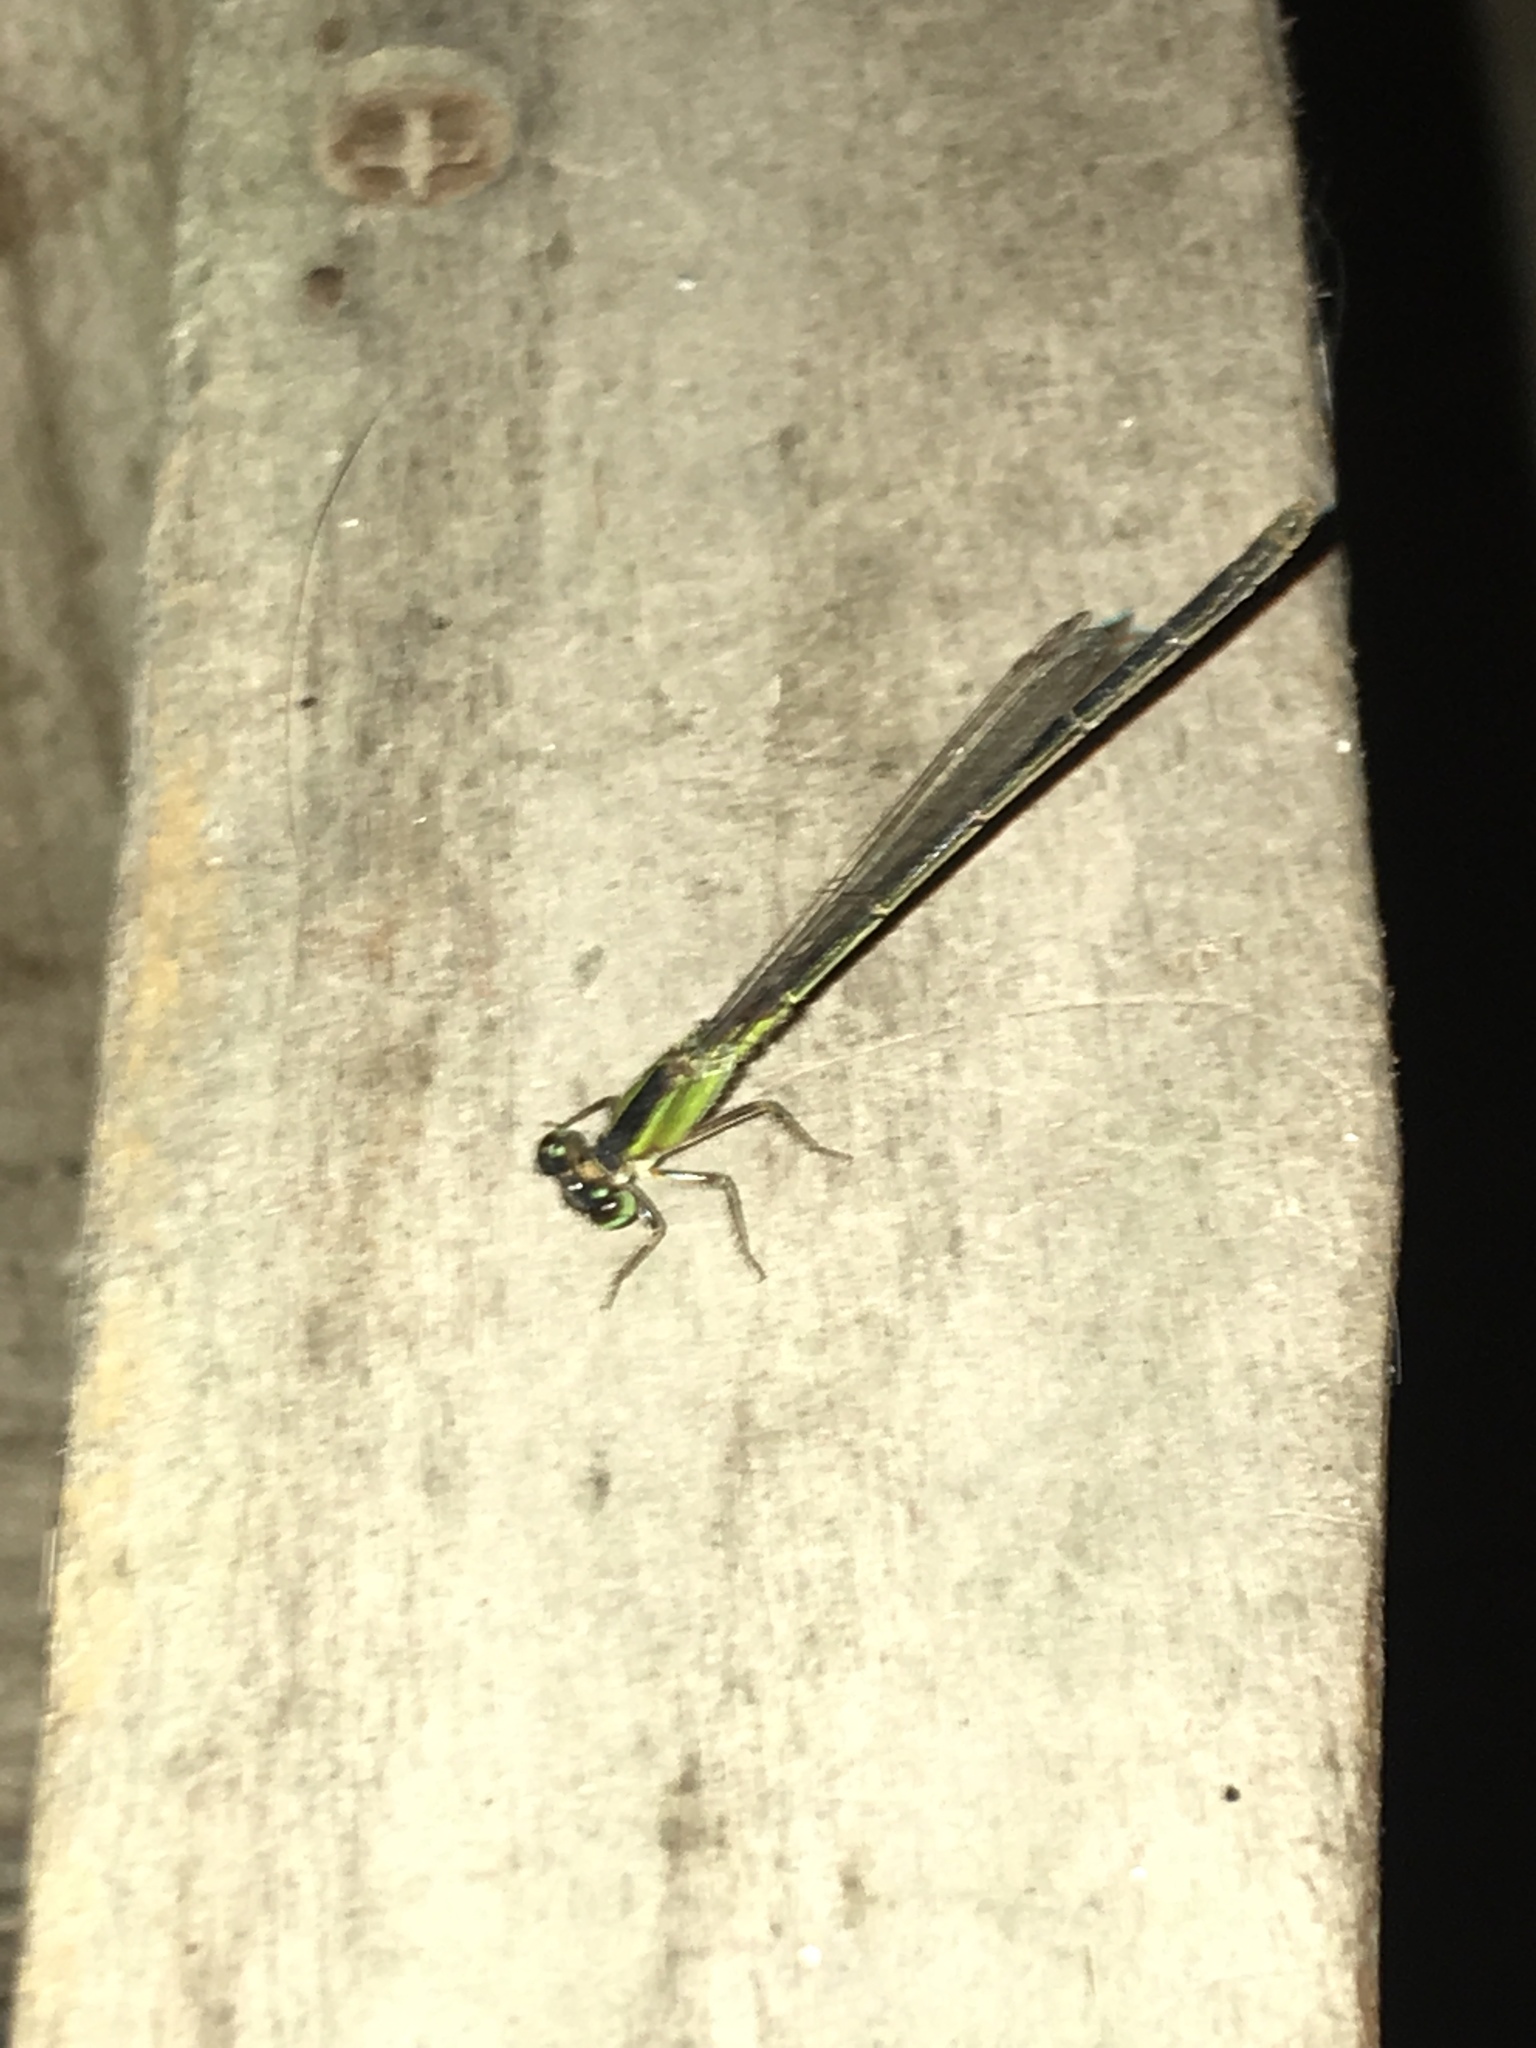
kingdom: Animalia
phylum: Arthropoda
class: Insecta
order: Odonata
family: Coenagrionidae
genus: Ischnura
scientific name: Ischnura ramburii
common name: Rambur's forktail
